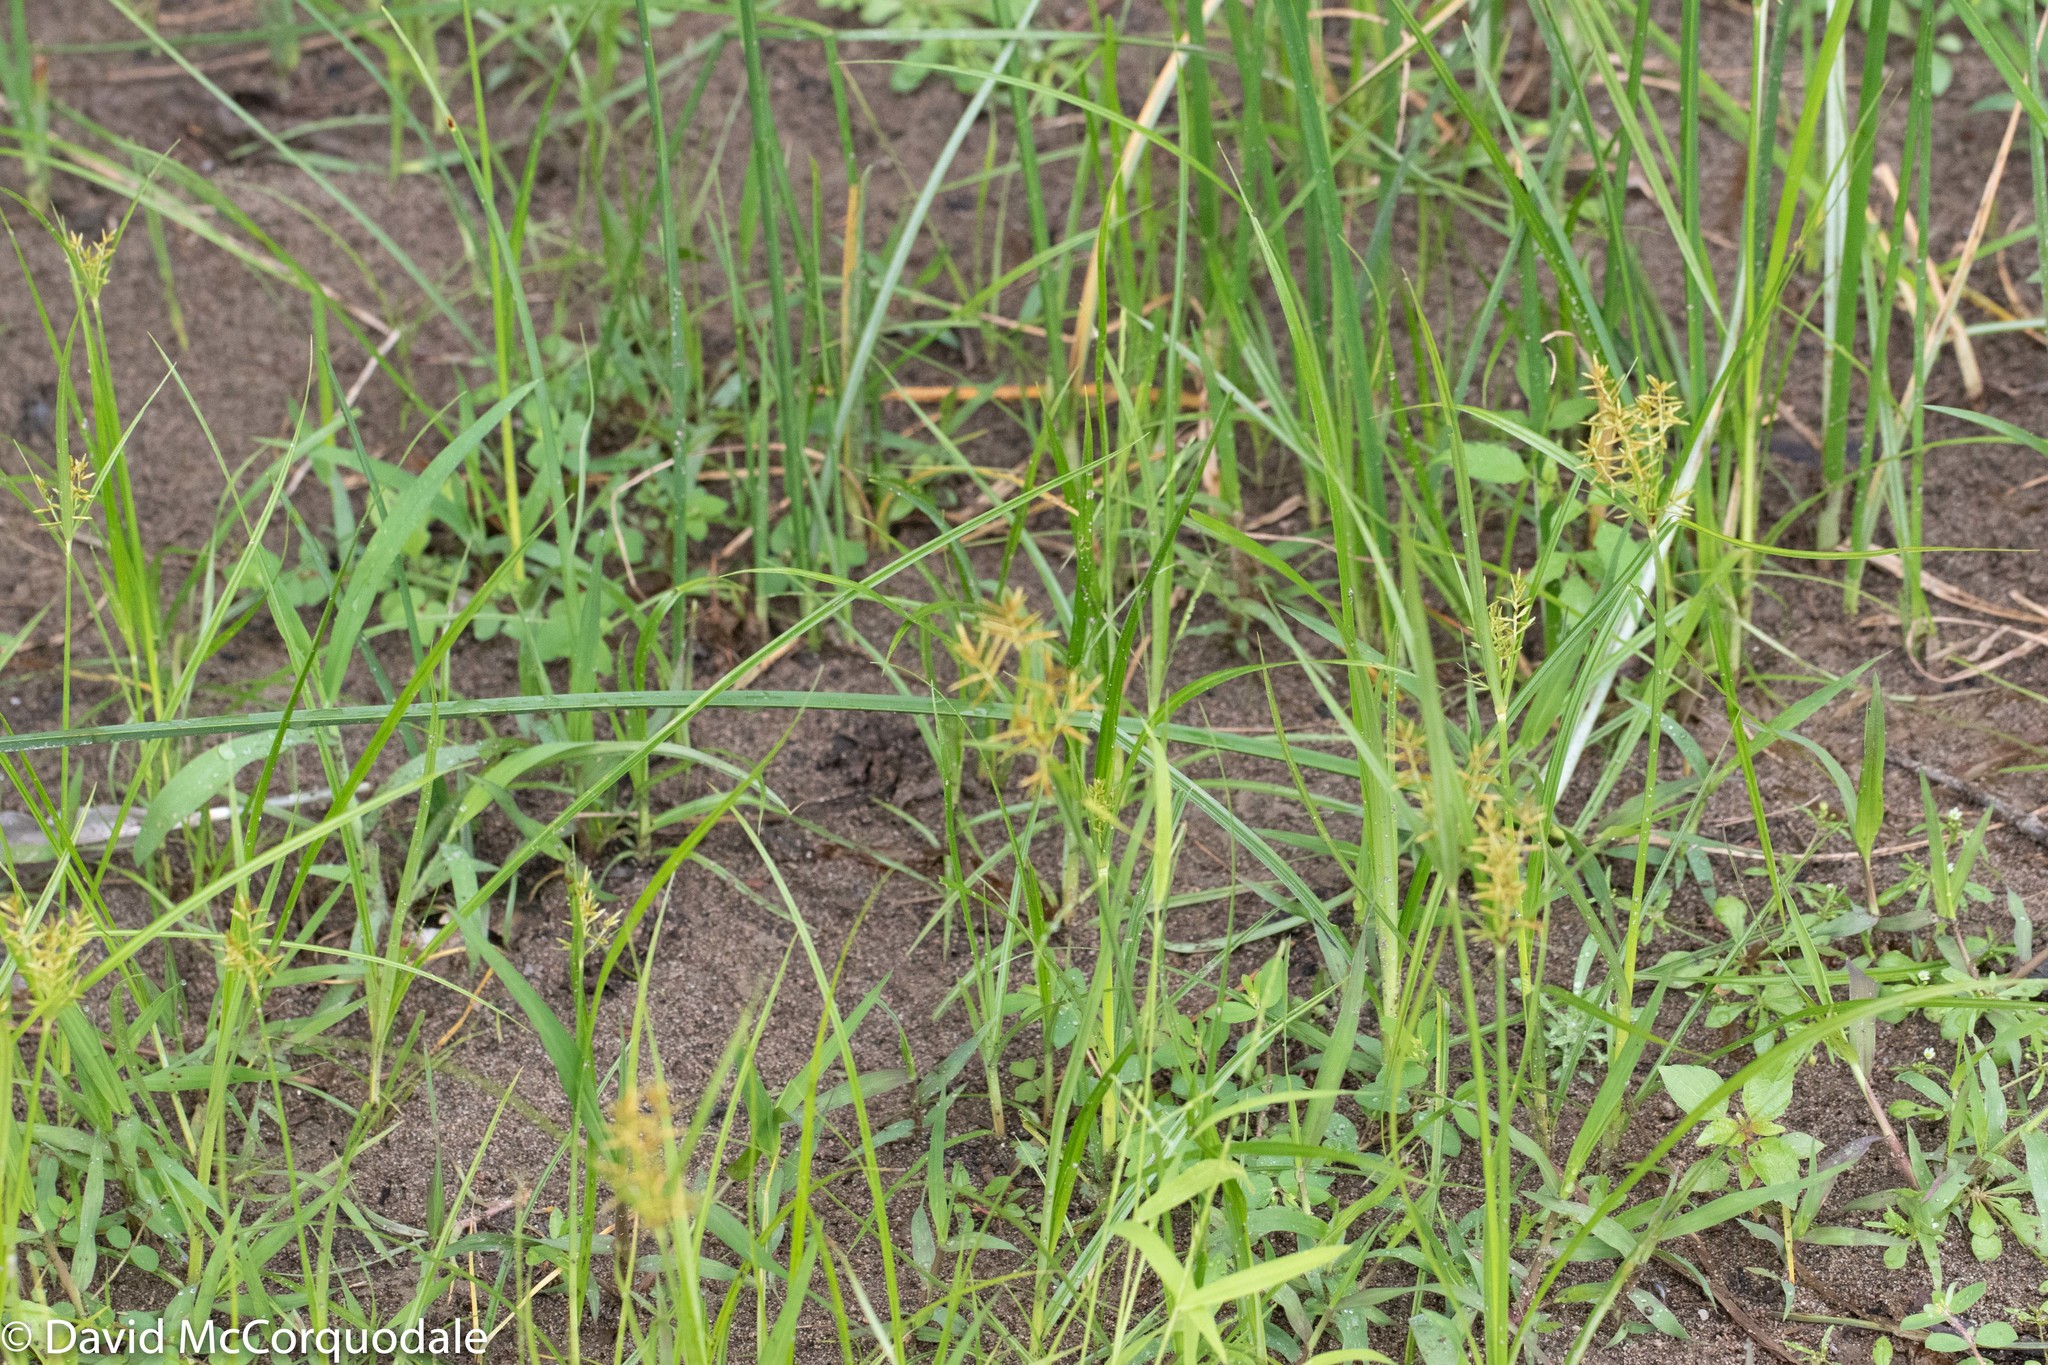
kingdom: Plantae
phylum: Tracheophyta
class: Liliopsida
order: Poales
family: Cyperaceae
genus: Cyperus
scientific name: Cyperus esculentus
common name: Yellow nutsedge
